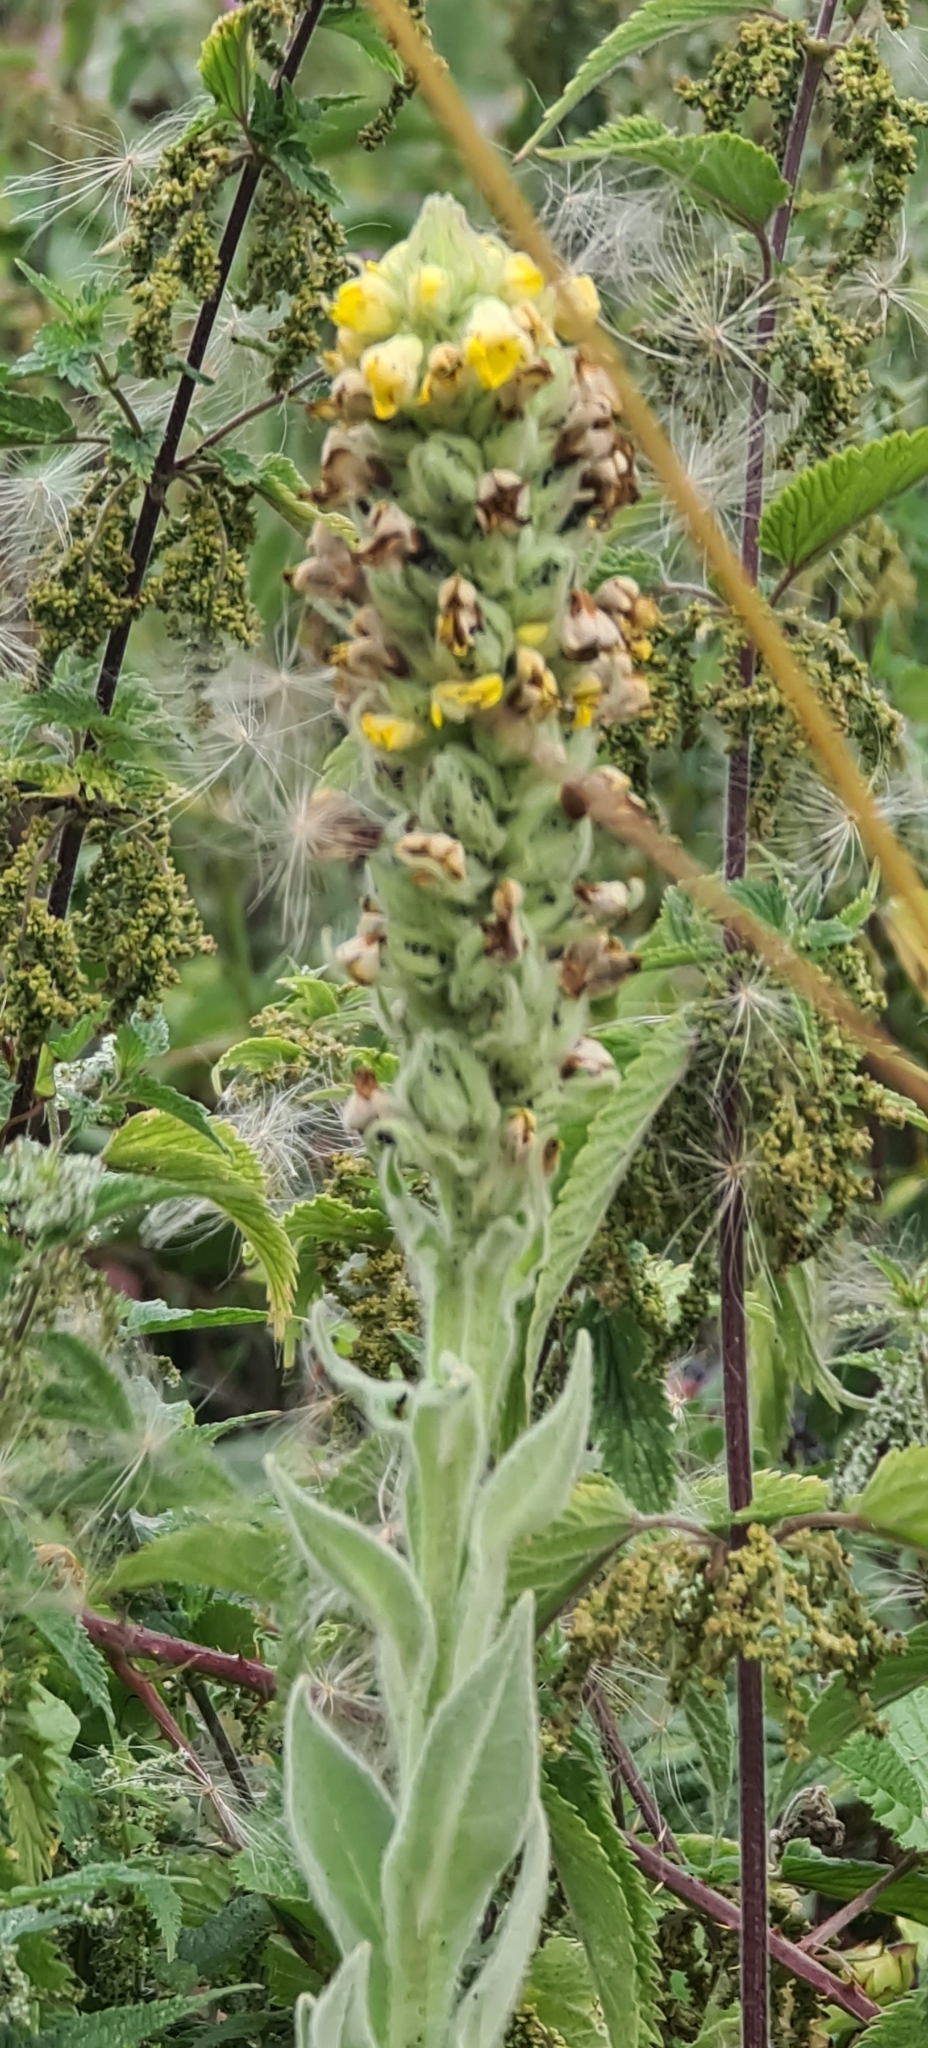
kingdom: Plantae
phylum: Tracheophyta
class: Magnoliopsida
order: Lamiales
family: Scrophulariaceae
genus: Verbascum
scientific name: Verbascum thapsus
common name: Common mullein
